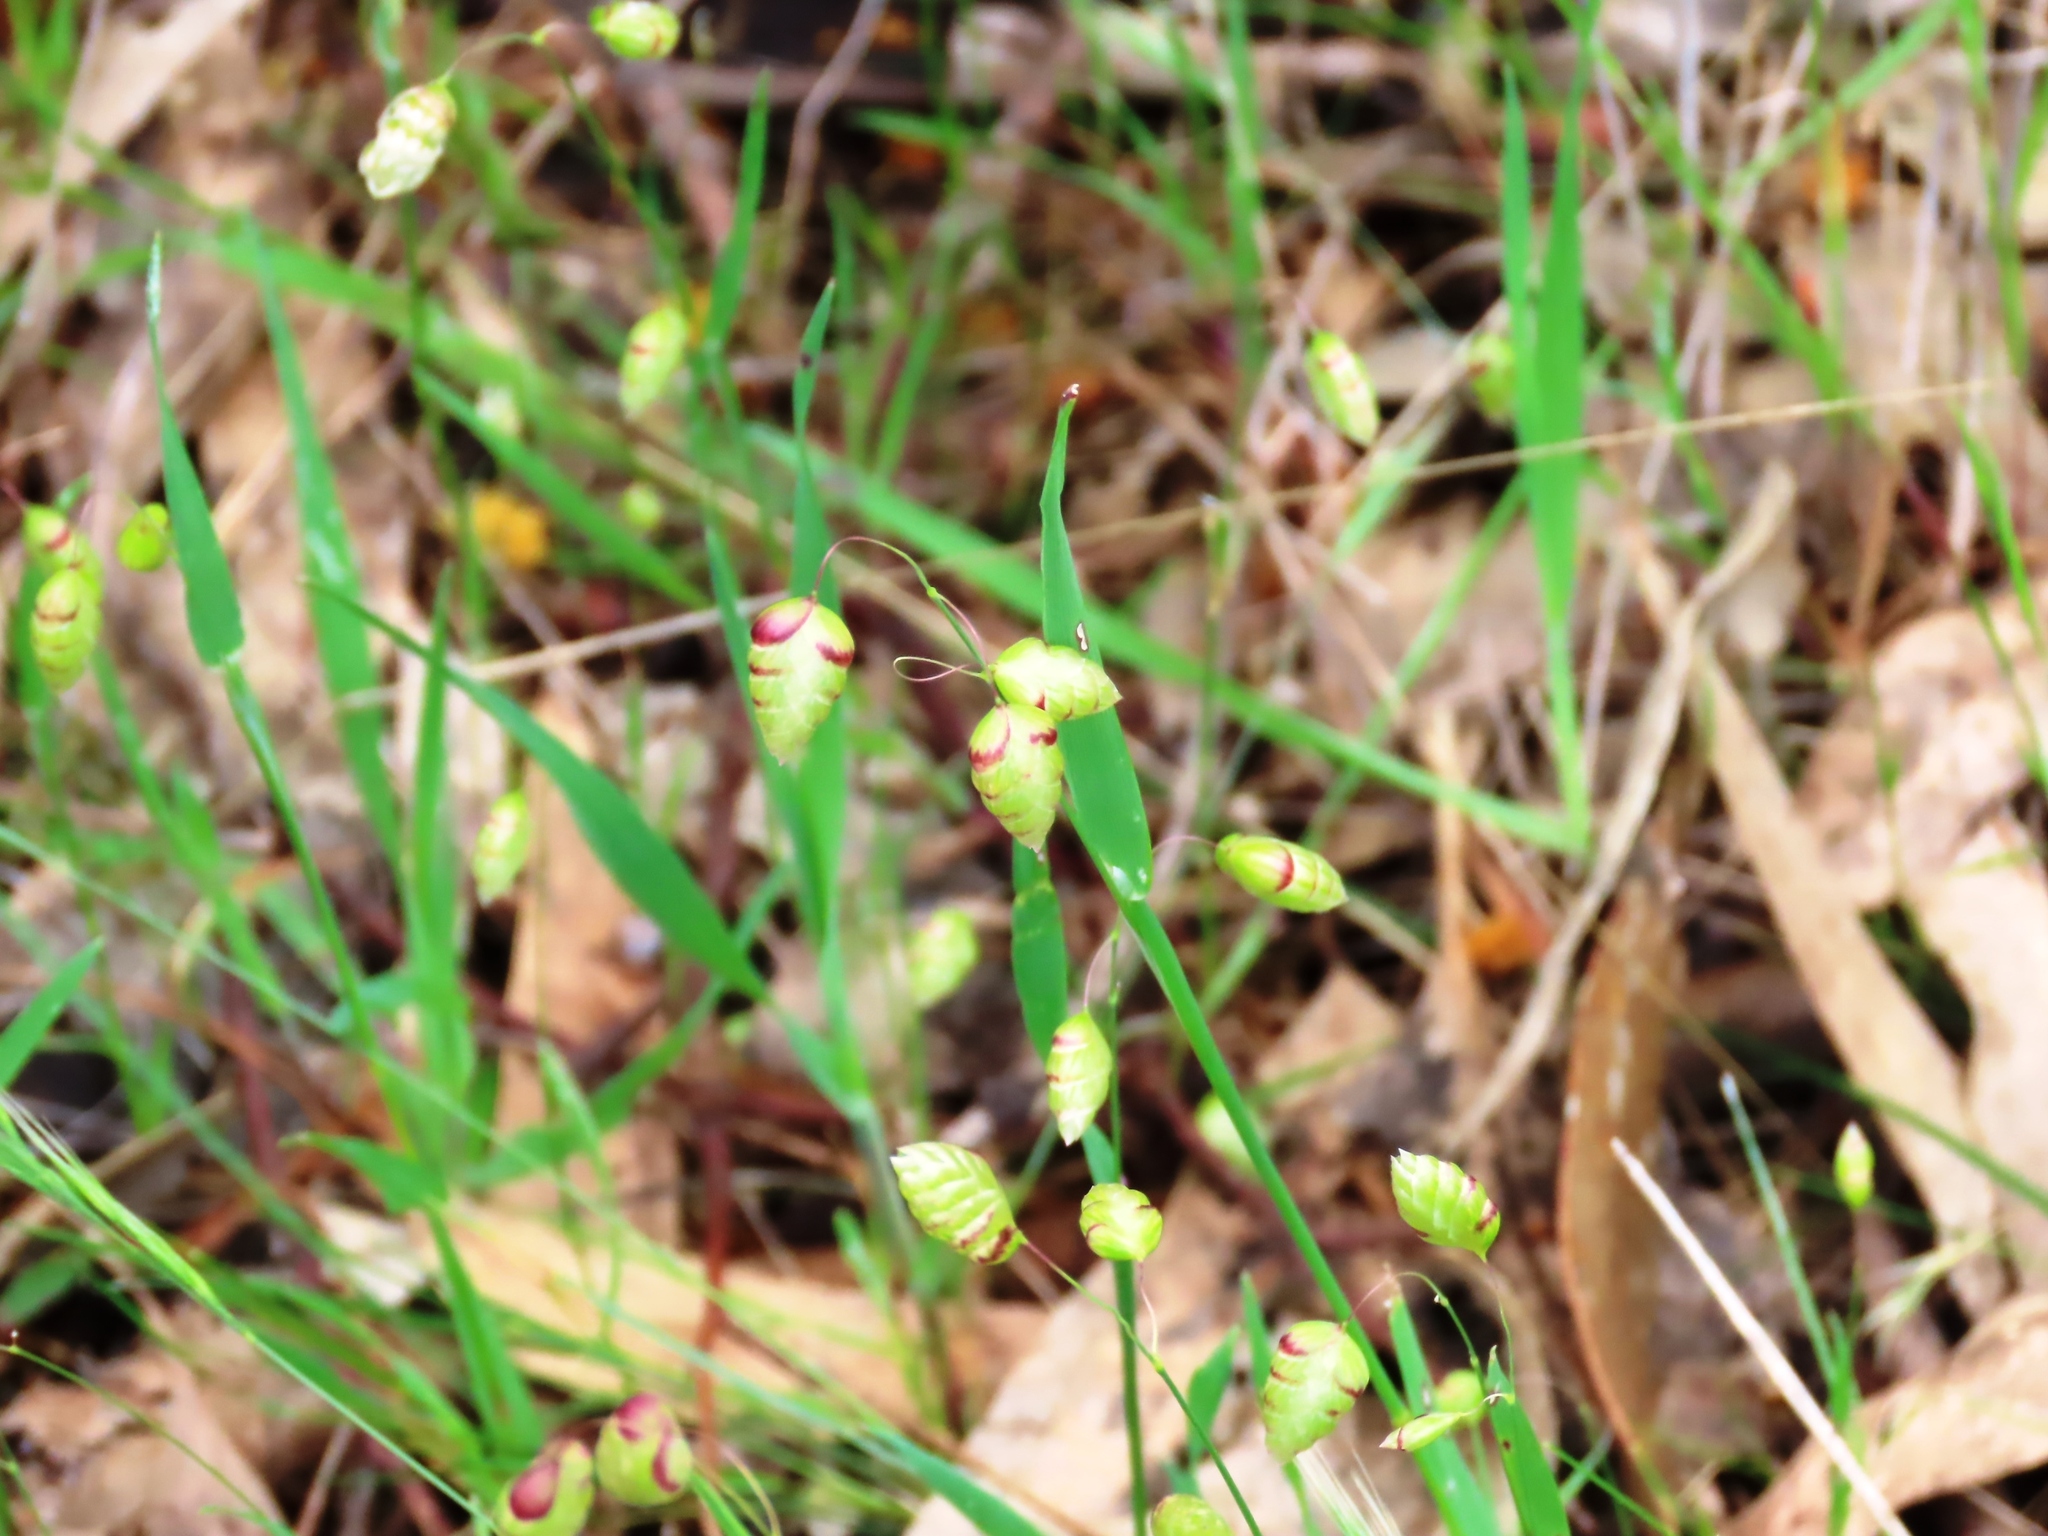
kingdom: Plantae
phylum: Tracheophyta
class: Liliopsida
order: Poales
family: Poaceae
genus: Briza
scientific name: Briza maxima
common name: Big quakinggrass
